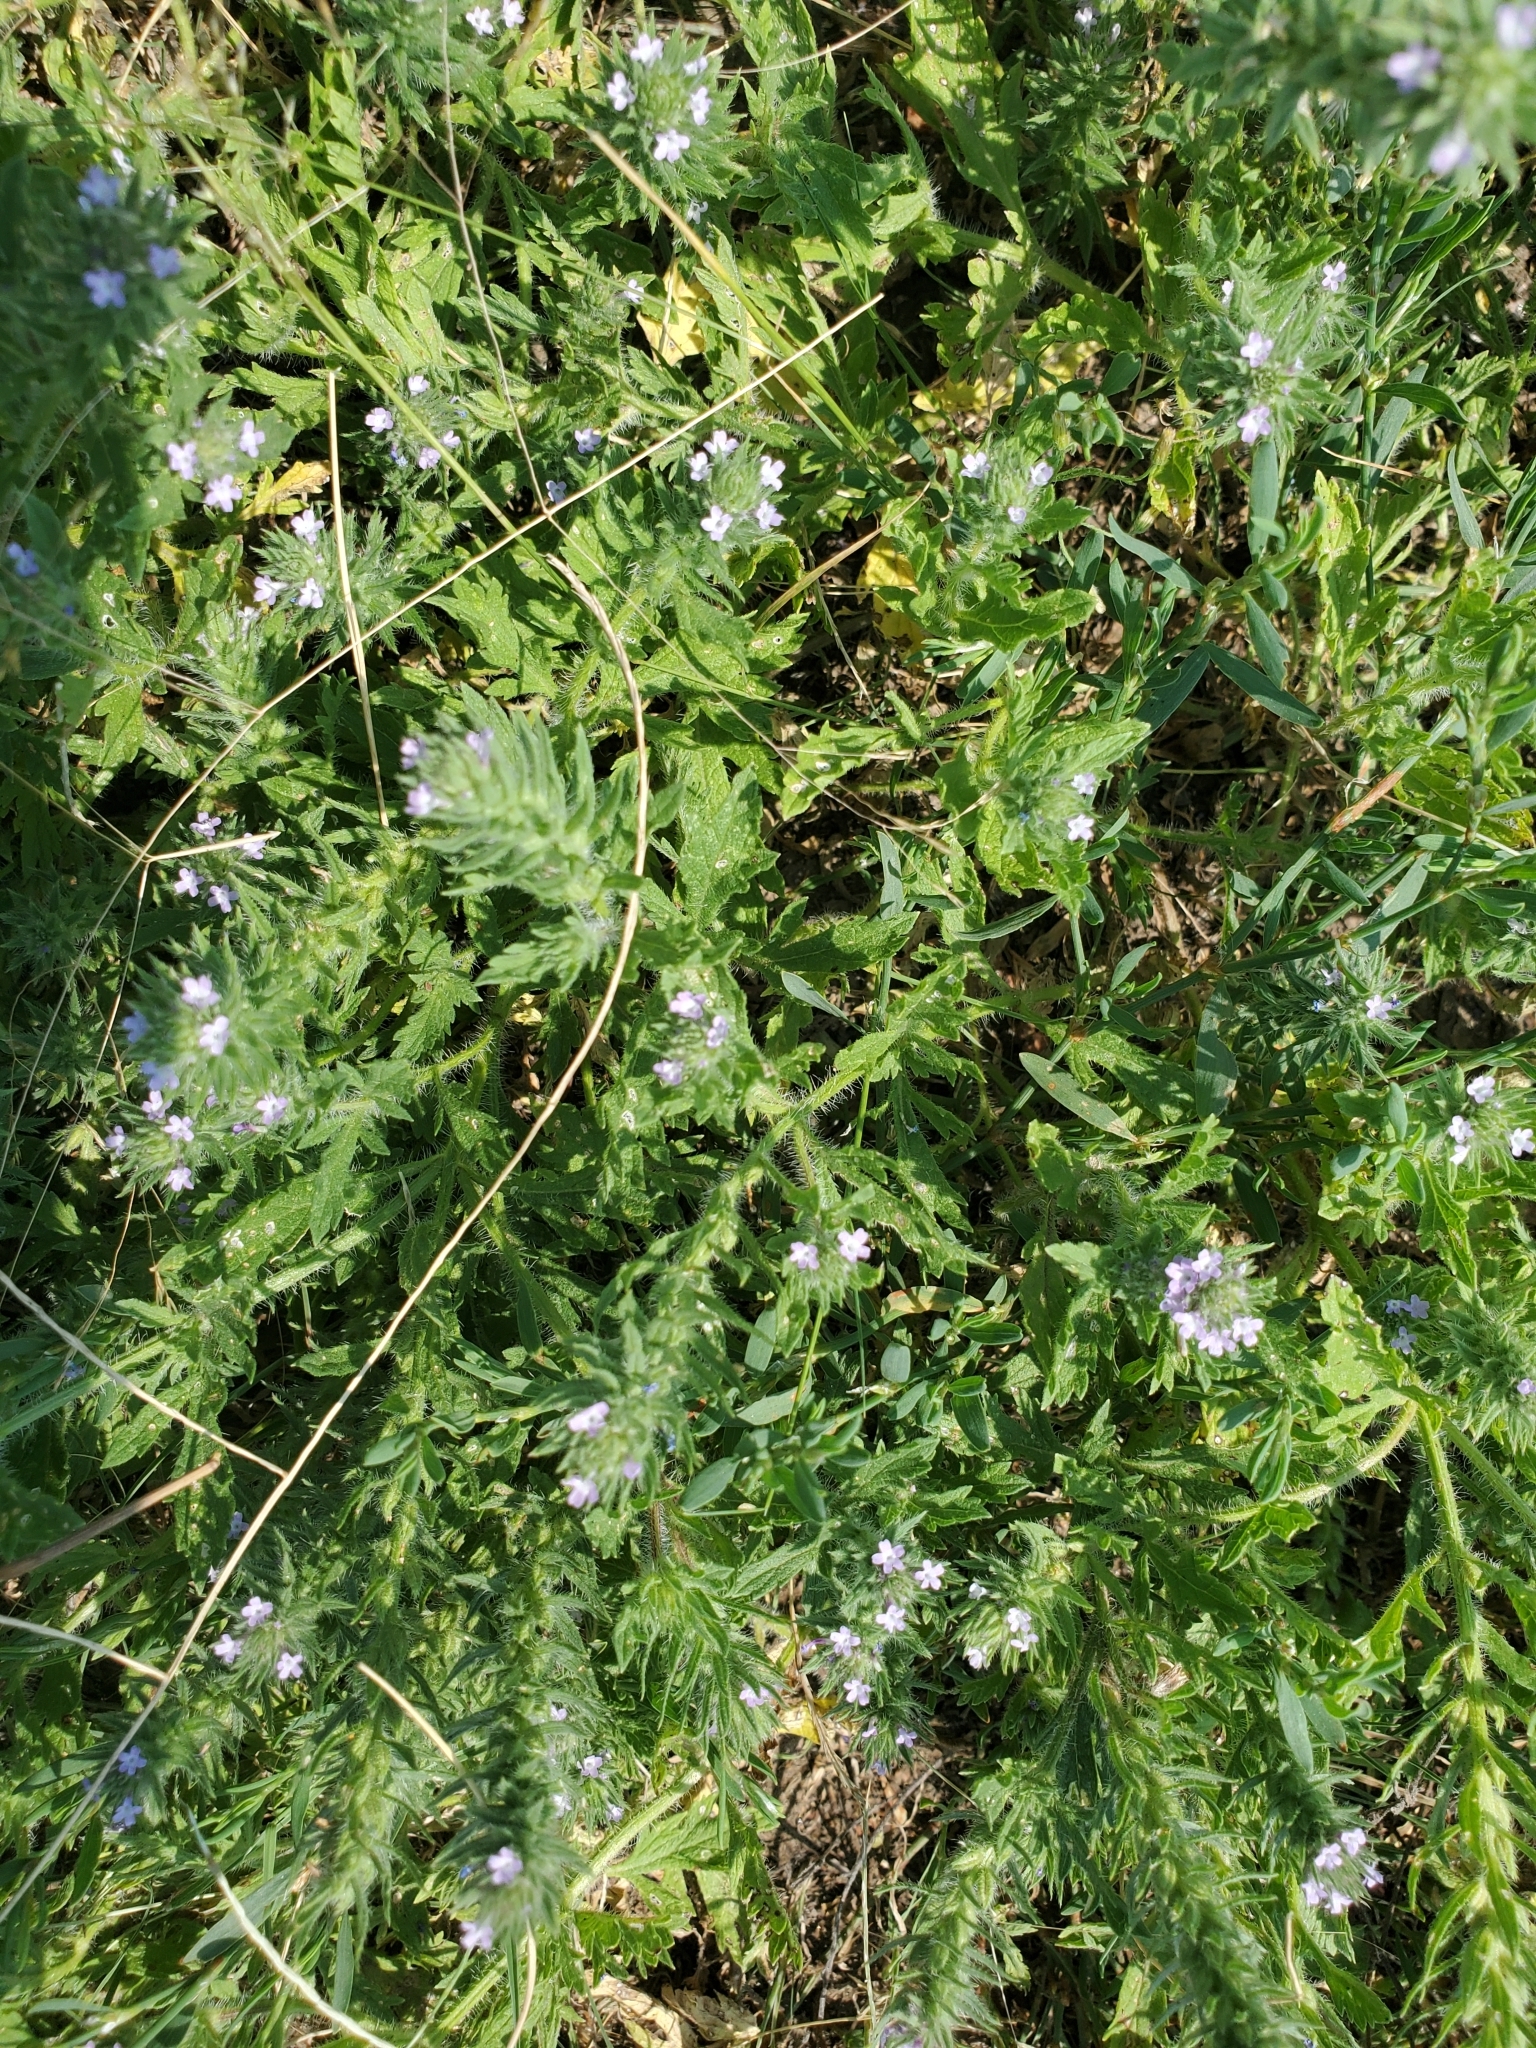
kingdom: Plantae
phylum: Tracheophyta
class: Magnoliopsida
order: Lamiales
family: Verbenaceae
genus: Verbena
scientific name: Verbena bracteata
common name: Bracted vervain
